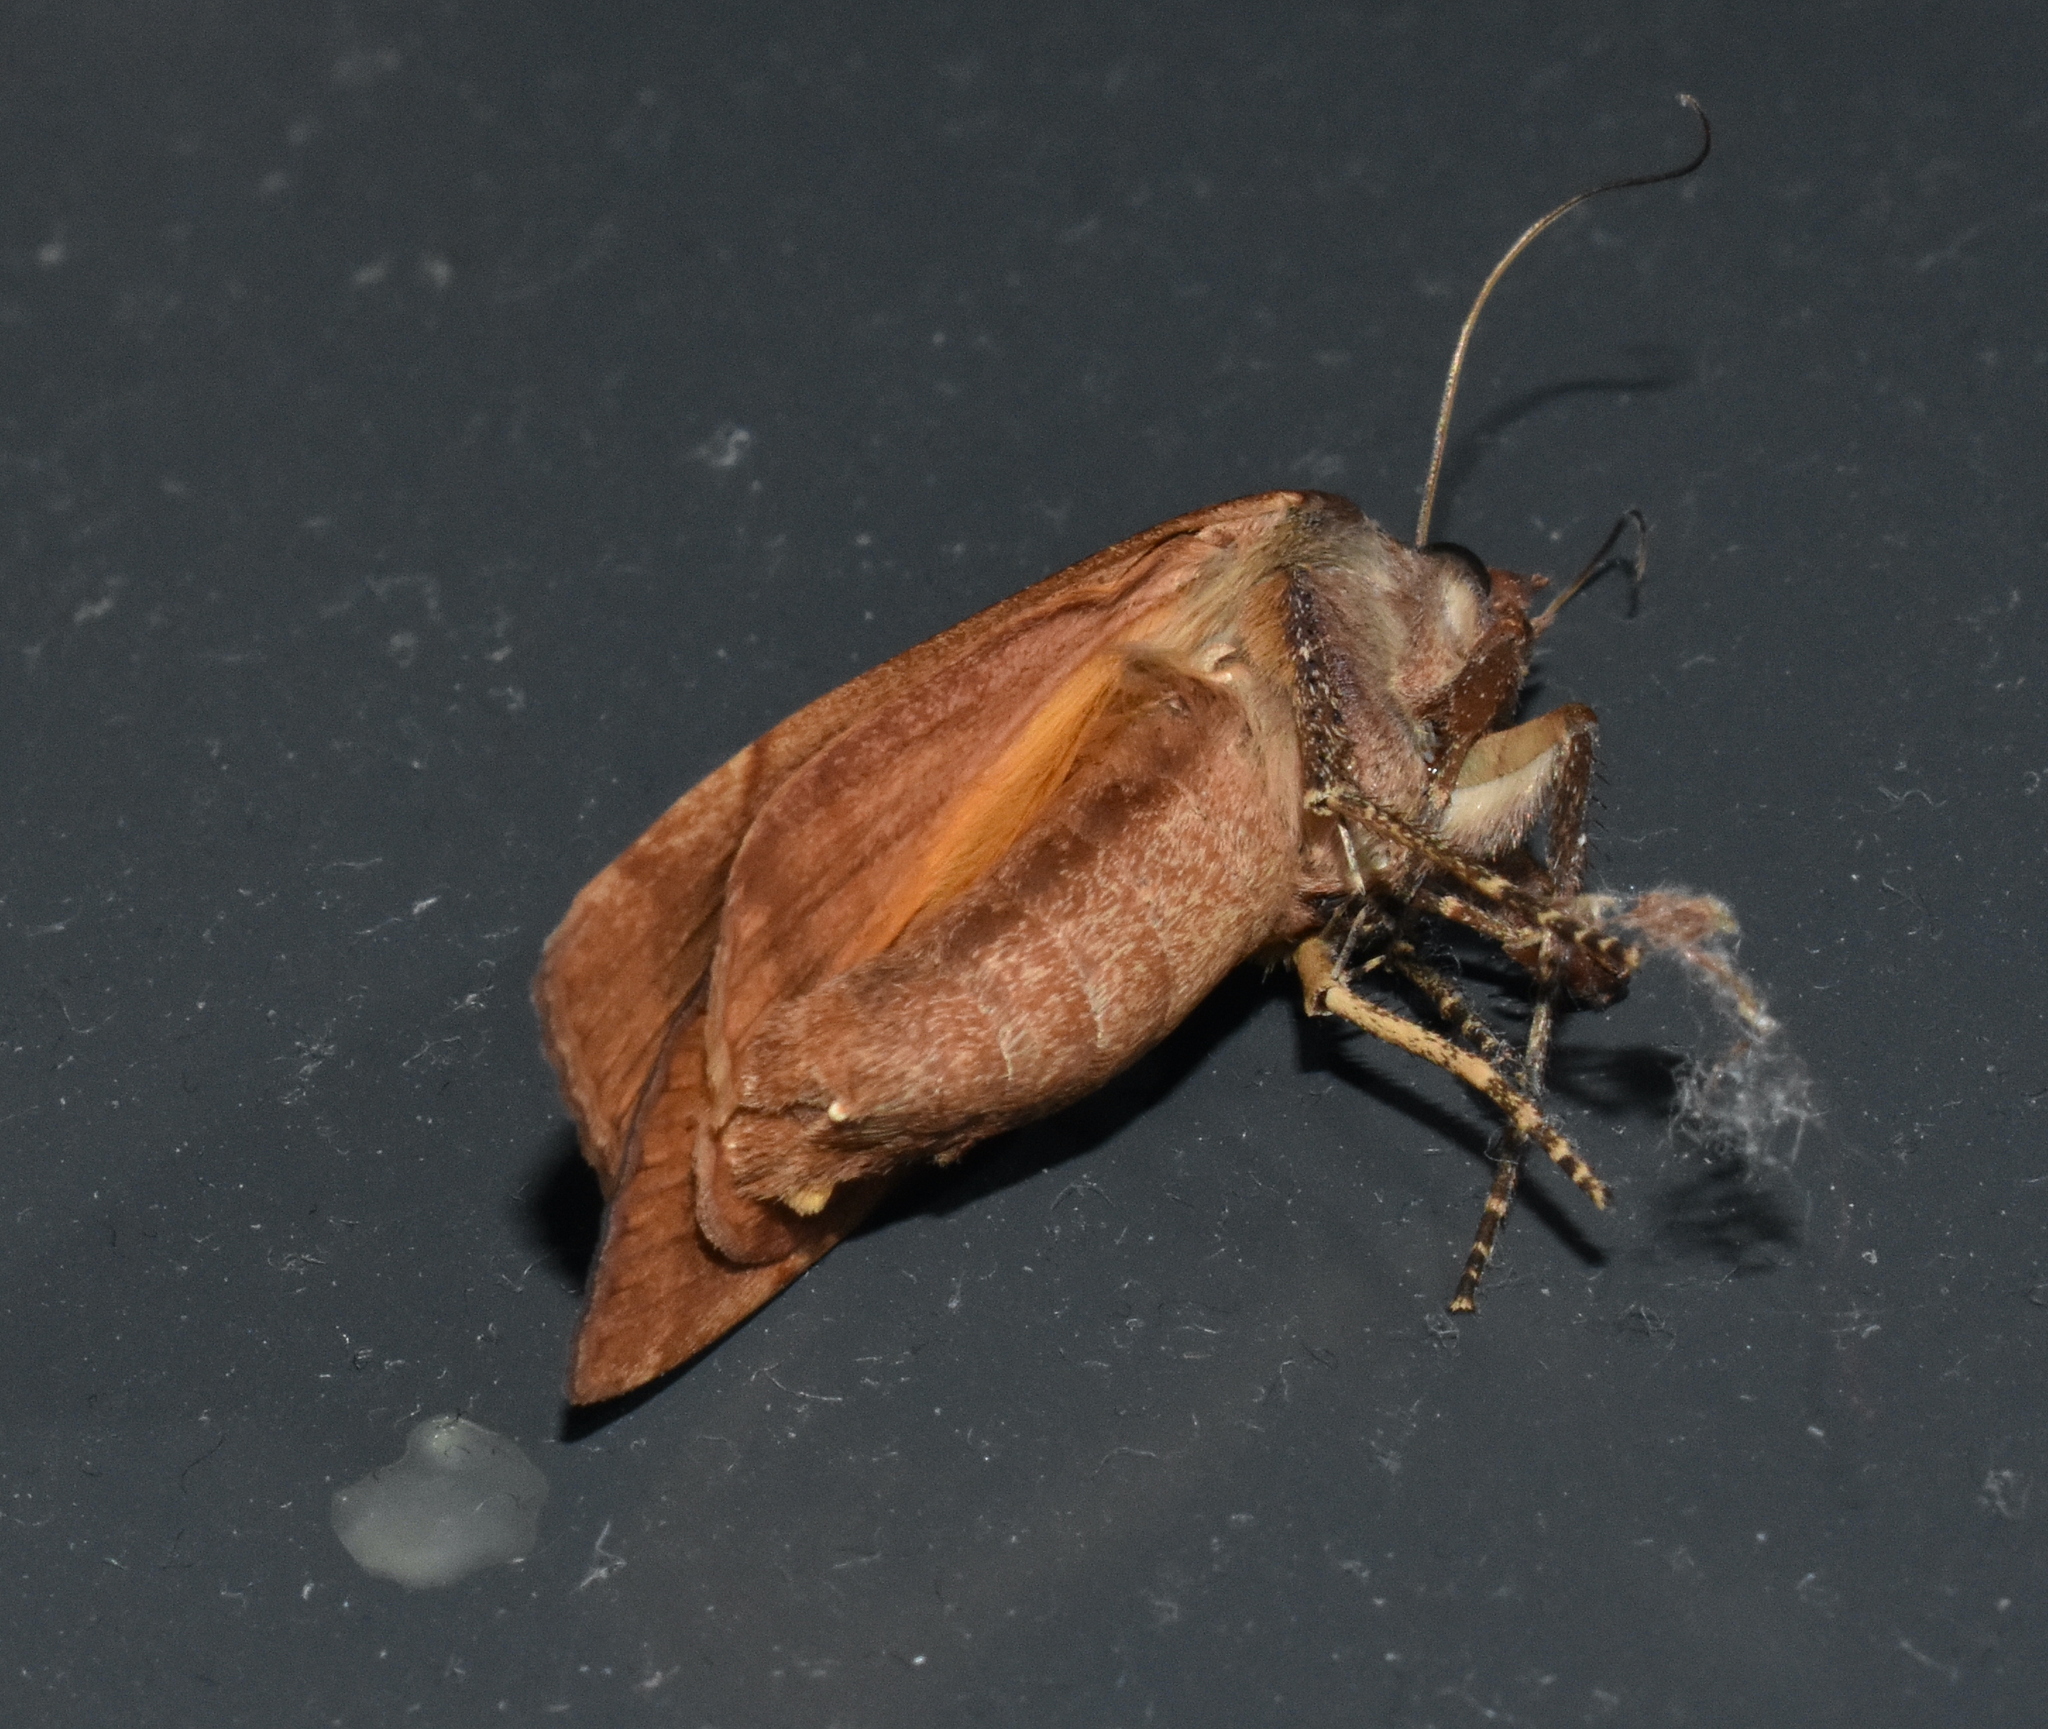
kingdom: Animalia
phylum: Arthropoda
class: Insecta
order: Lepidoptera
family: Noctuidae
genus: Noctua
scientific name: Noctua pronuba
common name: Large yellow underwing
